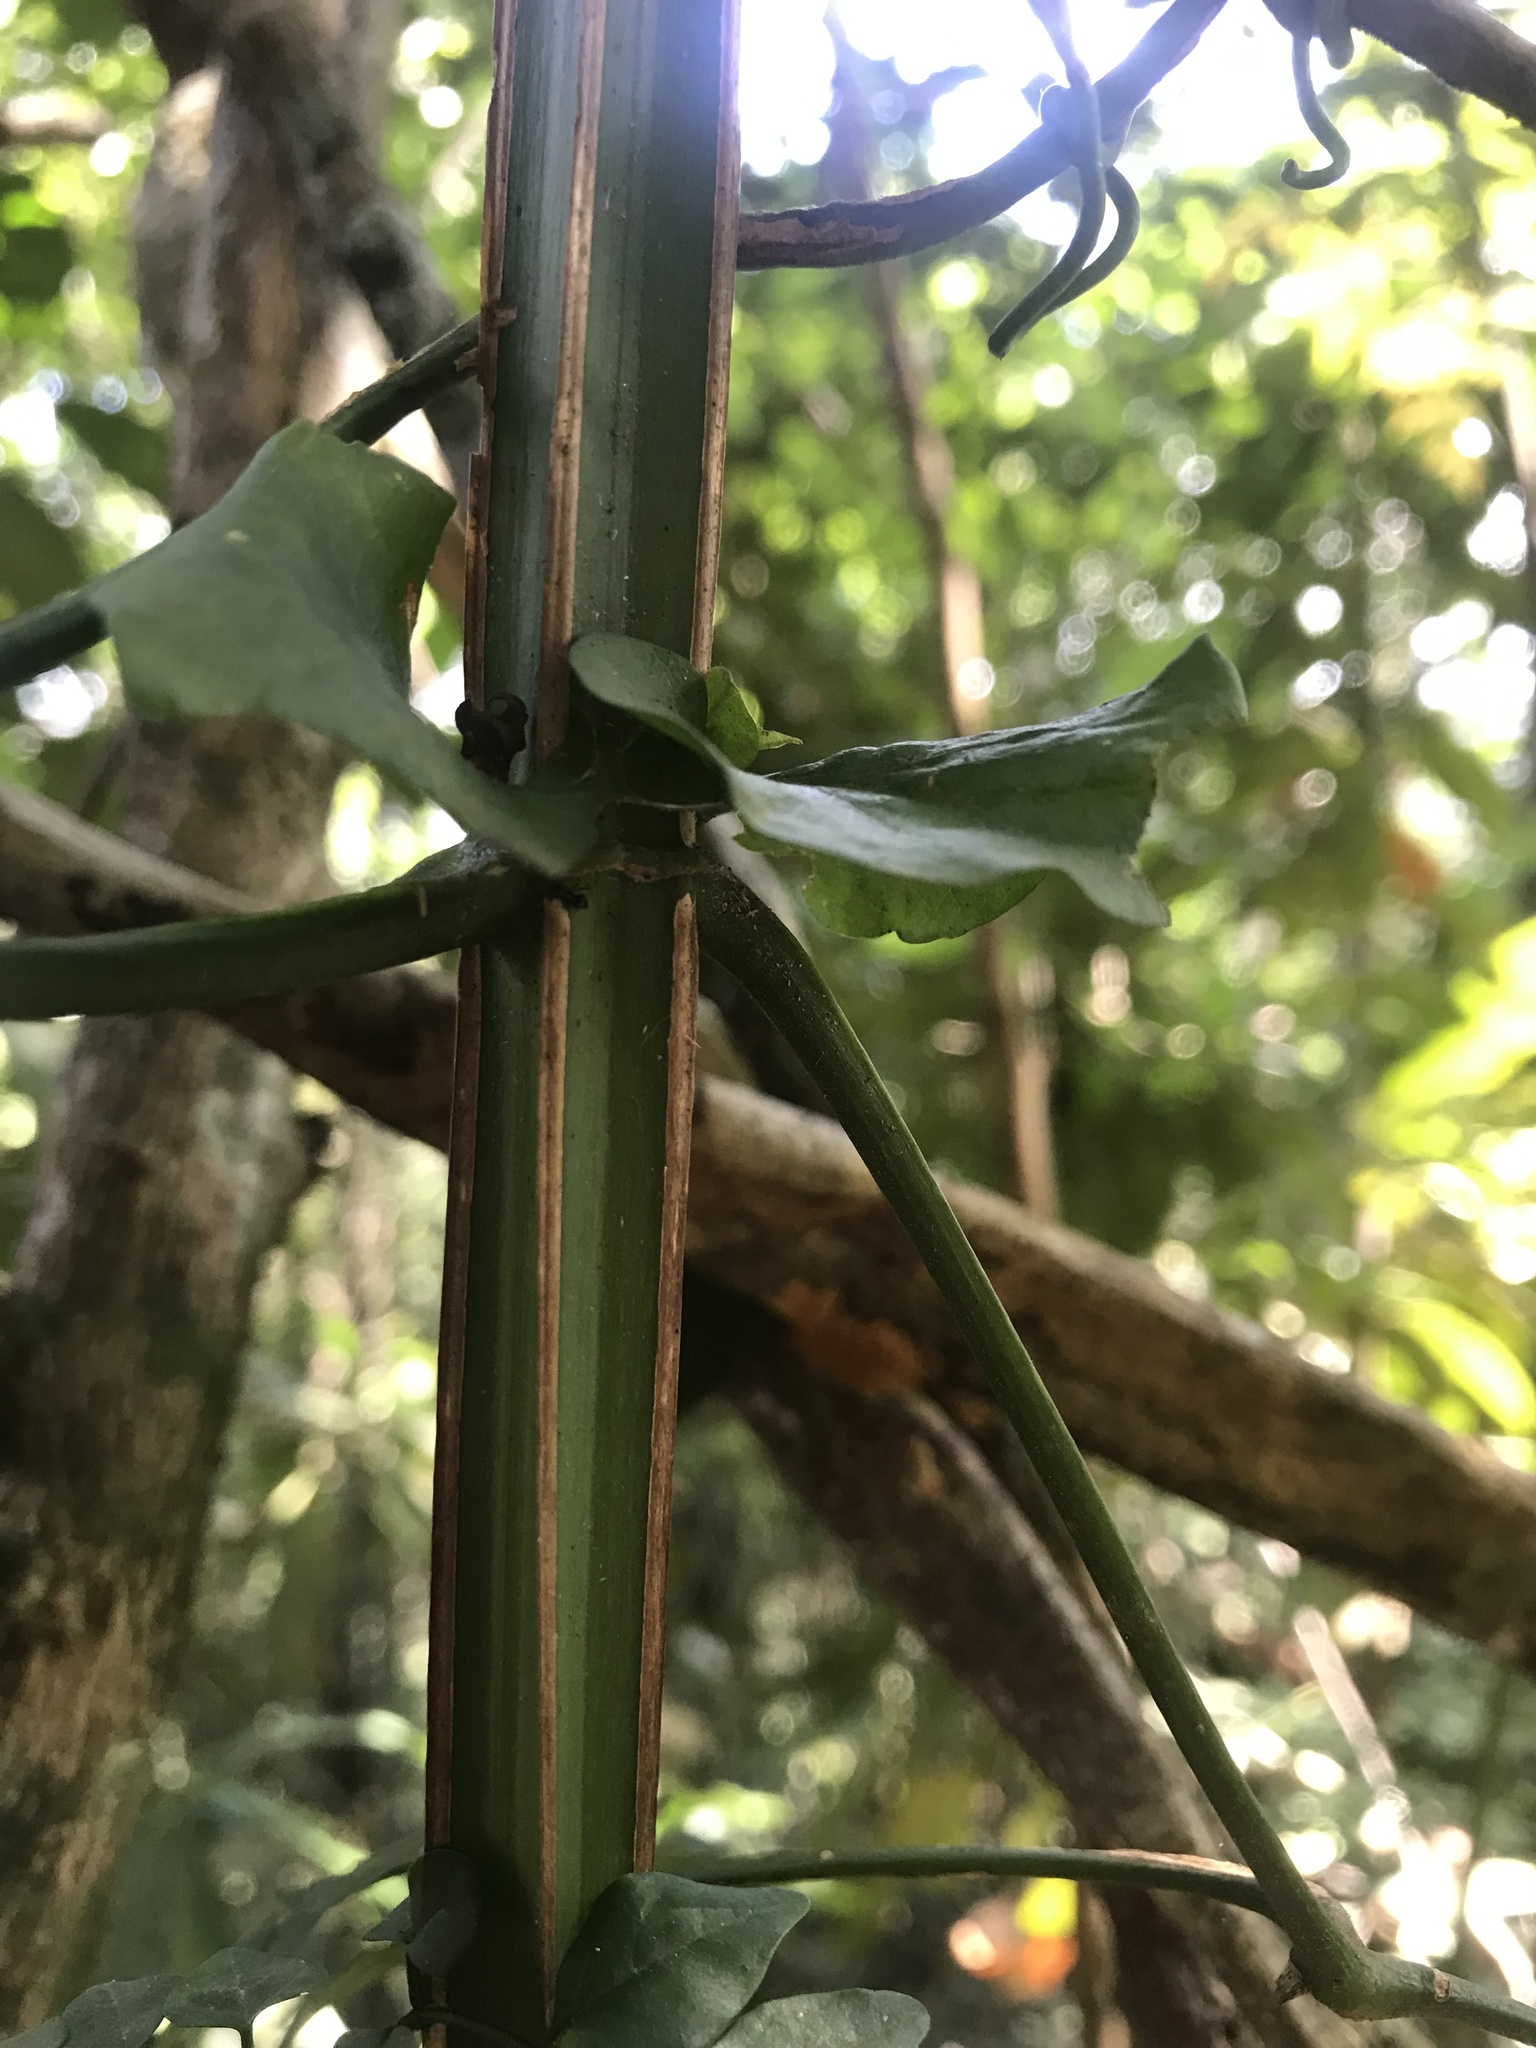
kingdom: Plantae
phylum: Tracheophyta
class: Magnoliopsida
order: Lamiales
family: Bignoniaceae
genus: Pleonotoma
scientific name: Pleonotoma jasminifolia
